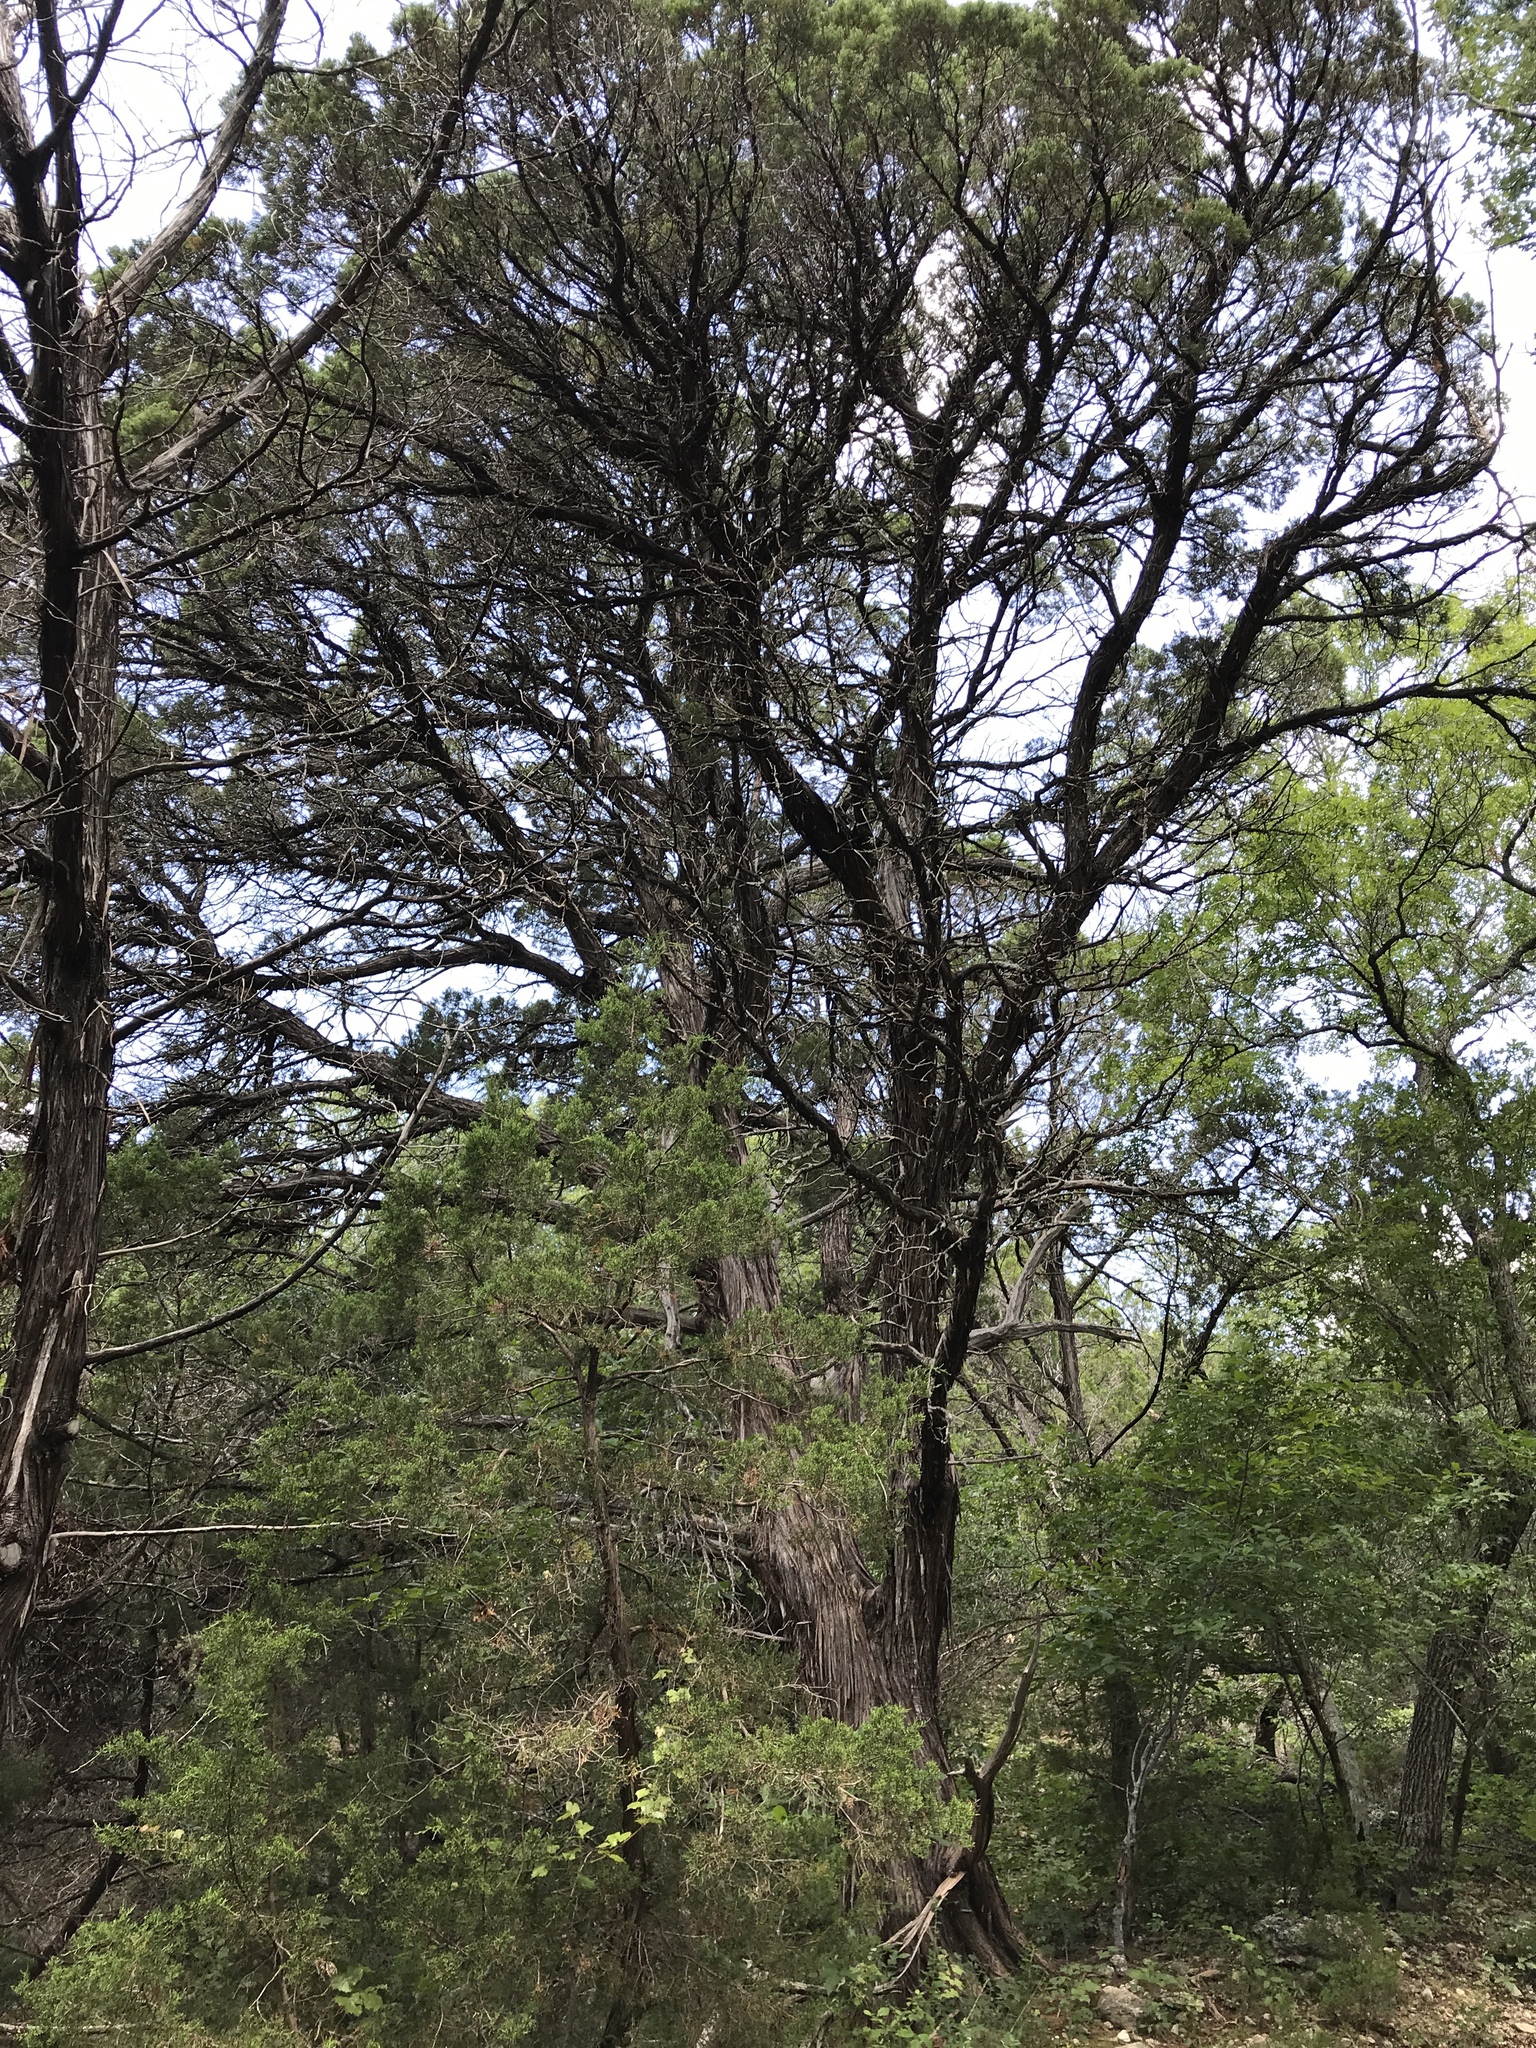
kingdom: Plantae
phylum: Tracheophyta
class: Pinopsida
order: Pinales
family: Cupressaceae
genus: Juniperus
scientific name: Juniperus ashei
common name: Mexican juniper
